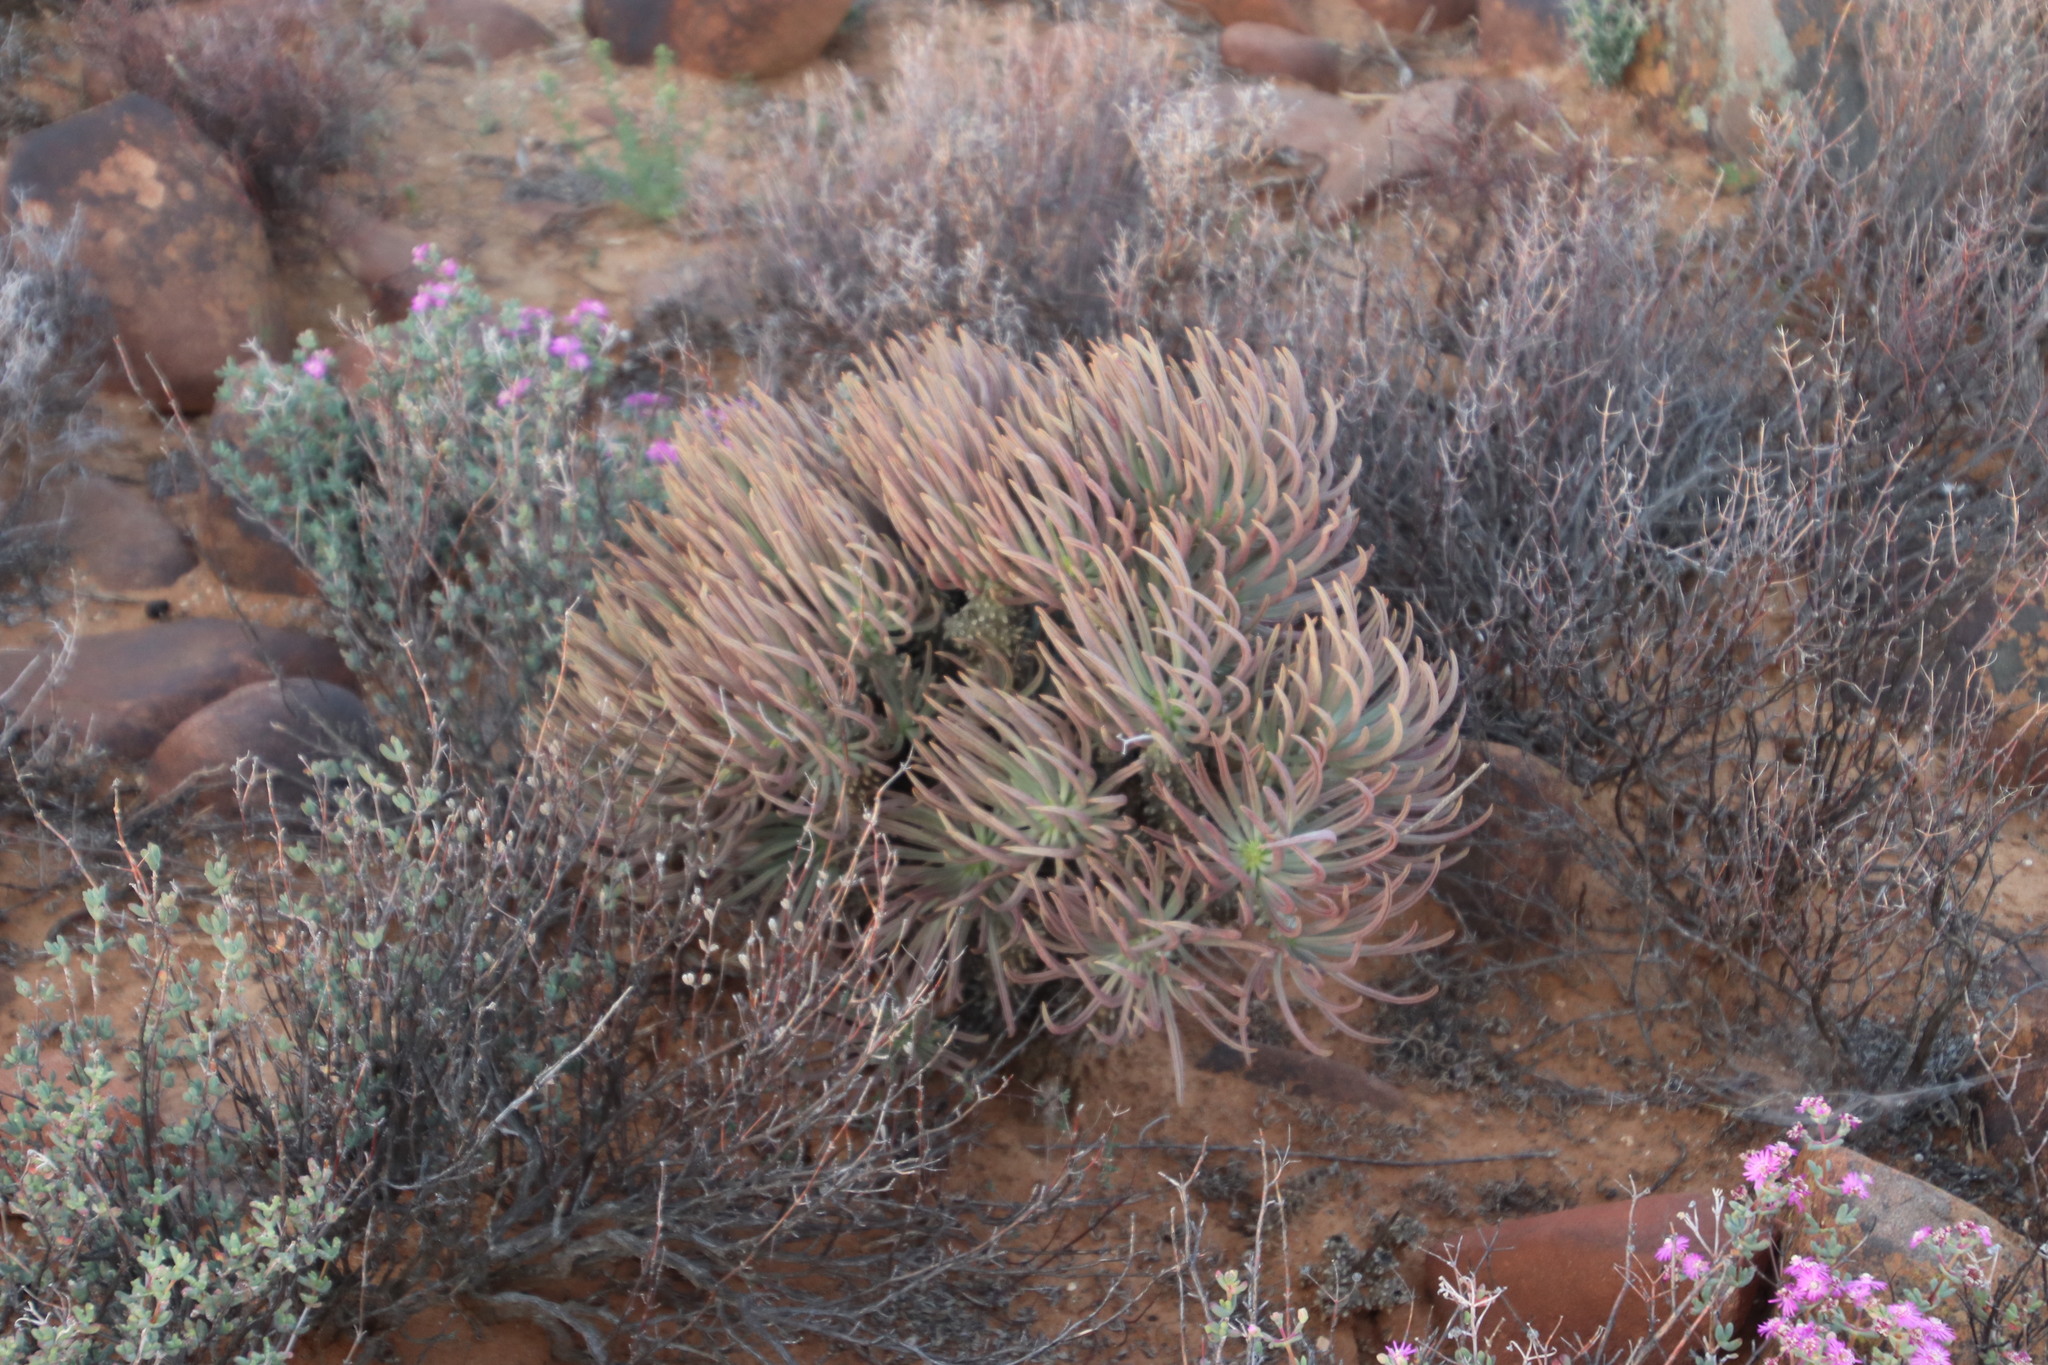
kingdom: Plantae
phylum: Tracheophyta
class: Magnoliopsida
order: Saxifragales
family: Crassulaceae
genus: Tylecodon
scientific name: Tylecodon wallichii
